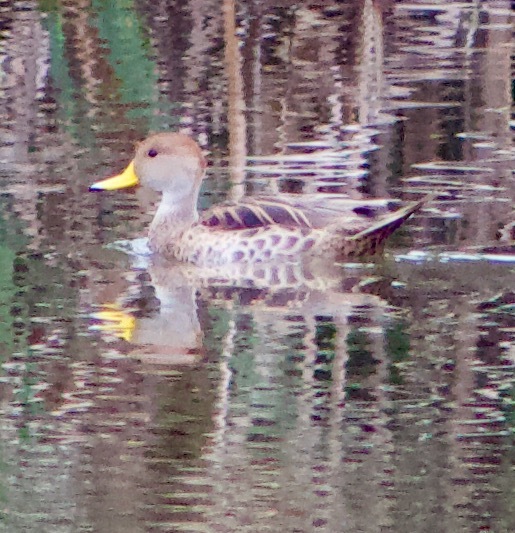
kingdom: Animalia
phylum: Chordata
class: Aves
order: Anseriformes
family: Anatidae
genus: Anas
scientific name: Anas georgica
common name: Yellow-billed pintail
